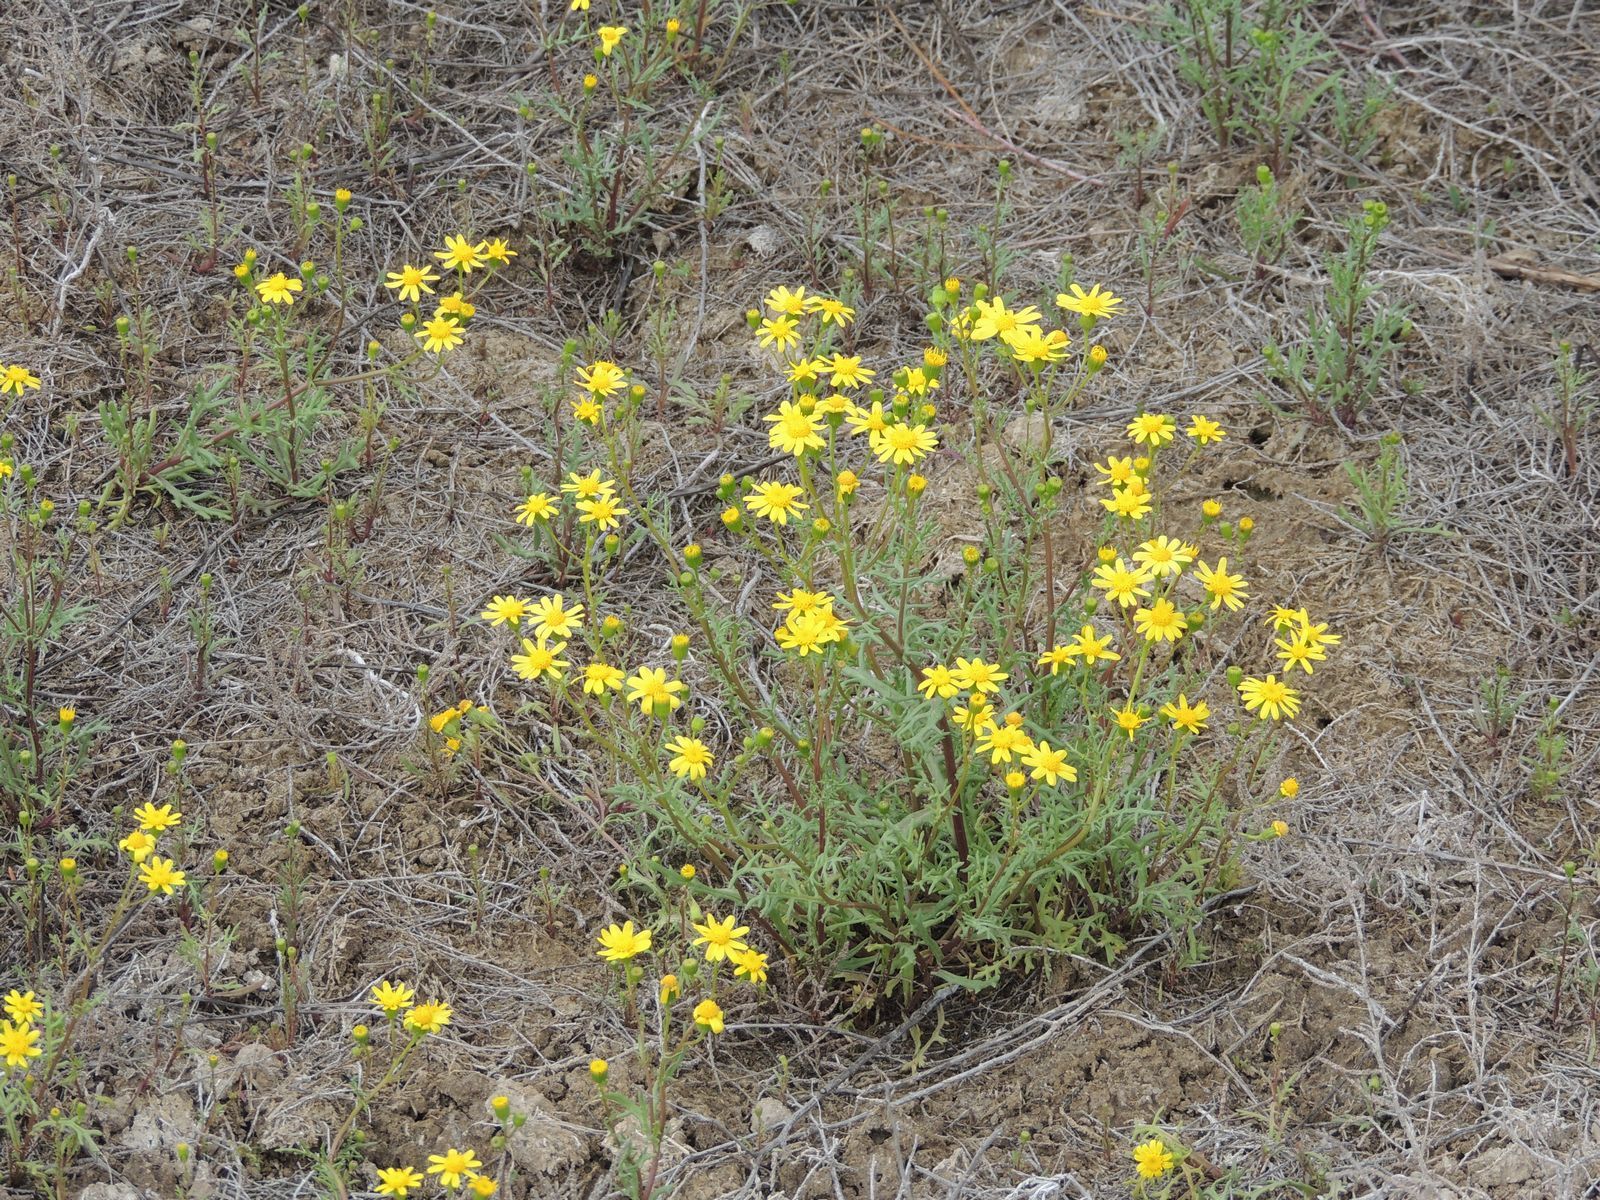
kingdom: Plantae
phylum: Tracheophyta
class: Magnoliopsida
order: Asterales
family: Asteraceae
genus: Senecio
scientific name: Senecio vernalis
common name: Eastern groundsel
